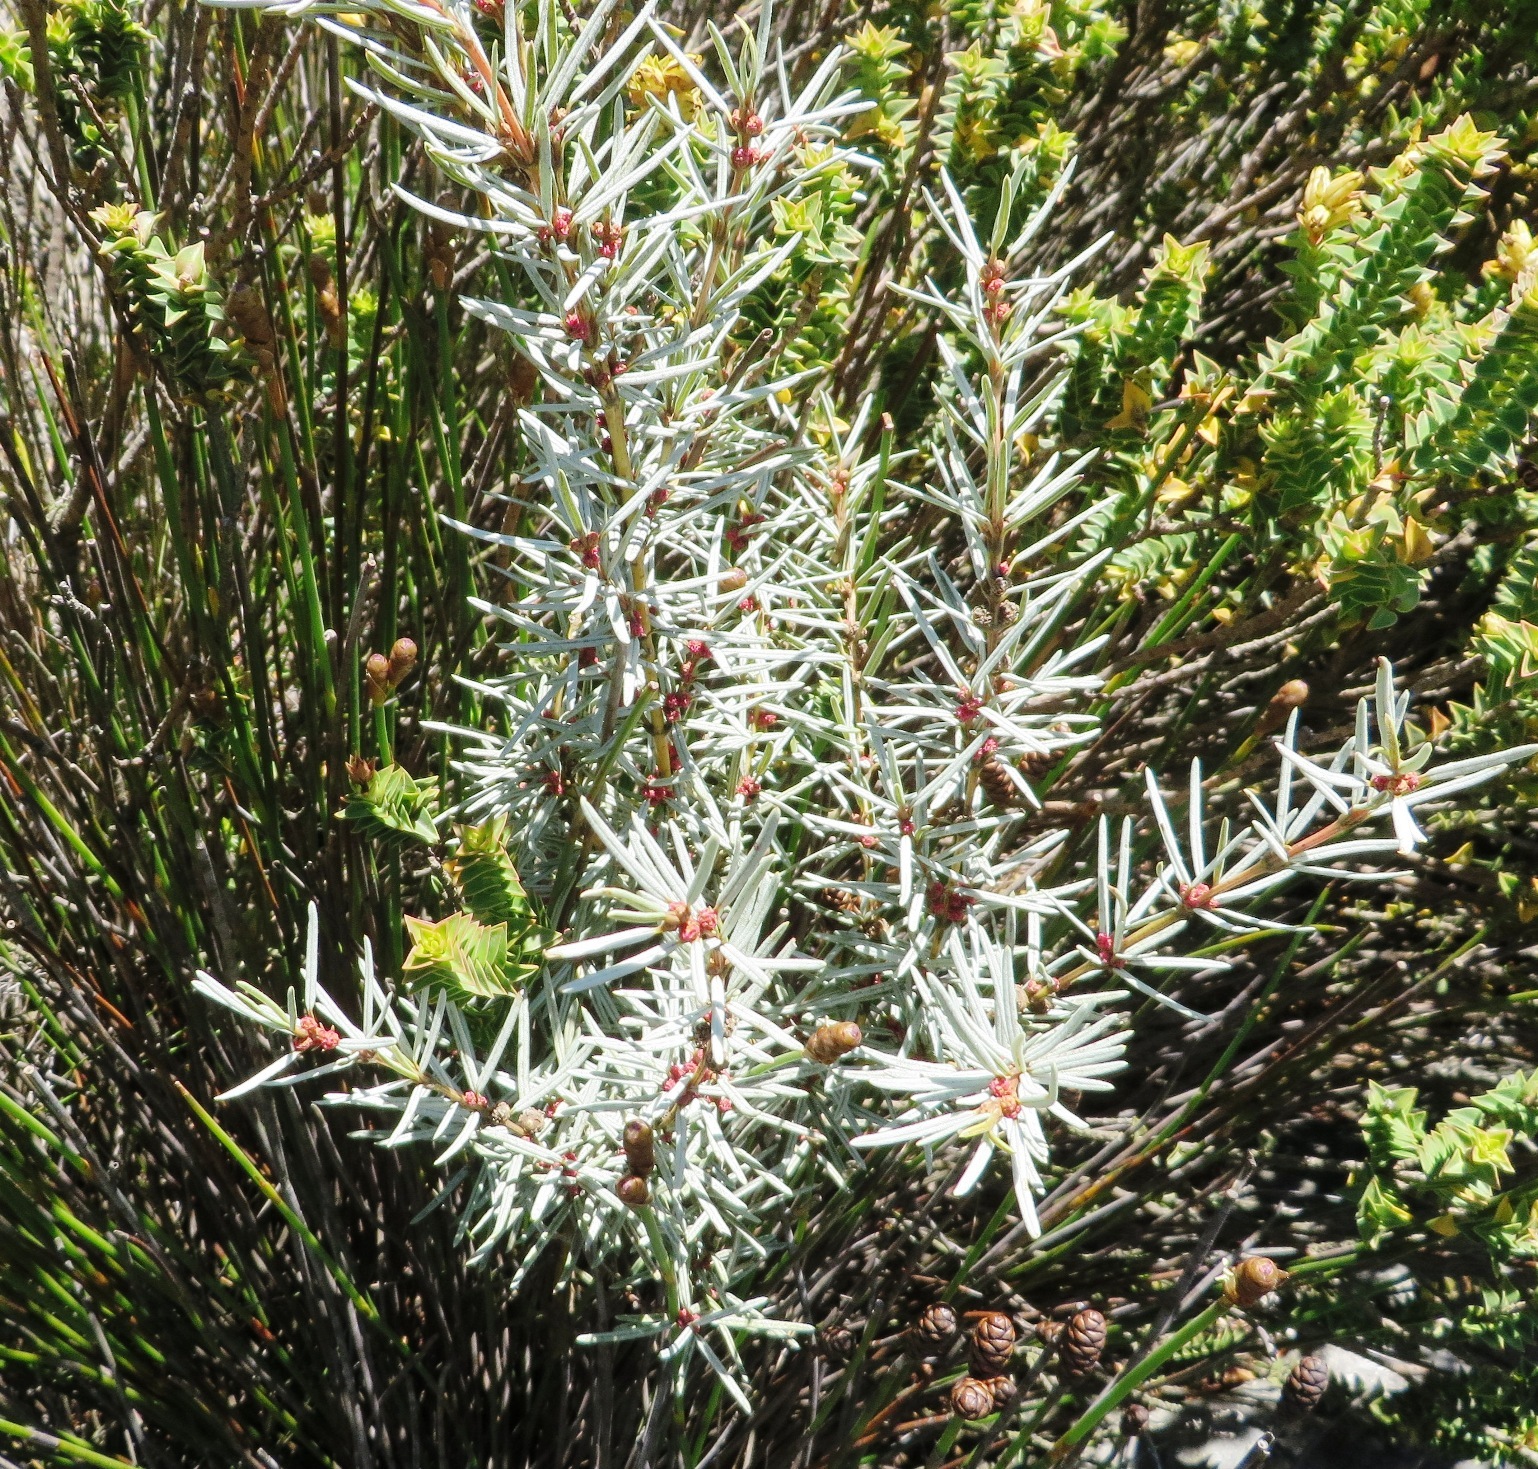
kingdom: Plantae
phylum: Tracheophyta
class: Magnoliopsida
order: Cornales
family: Grubbiaceae
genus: Grubbia
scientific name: Grubbia rourkei
